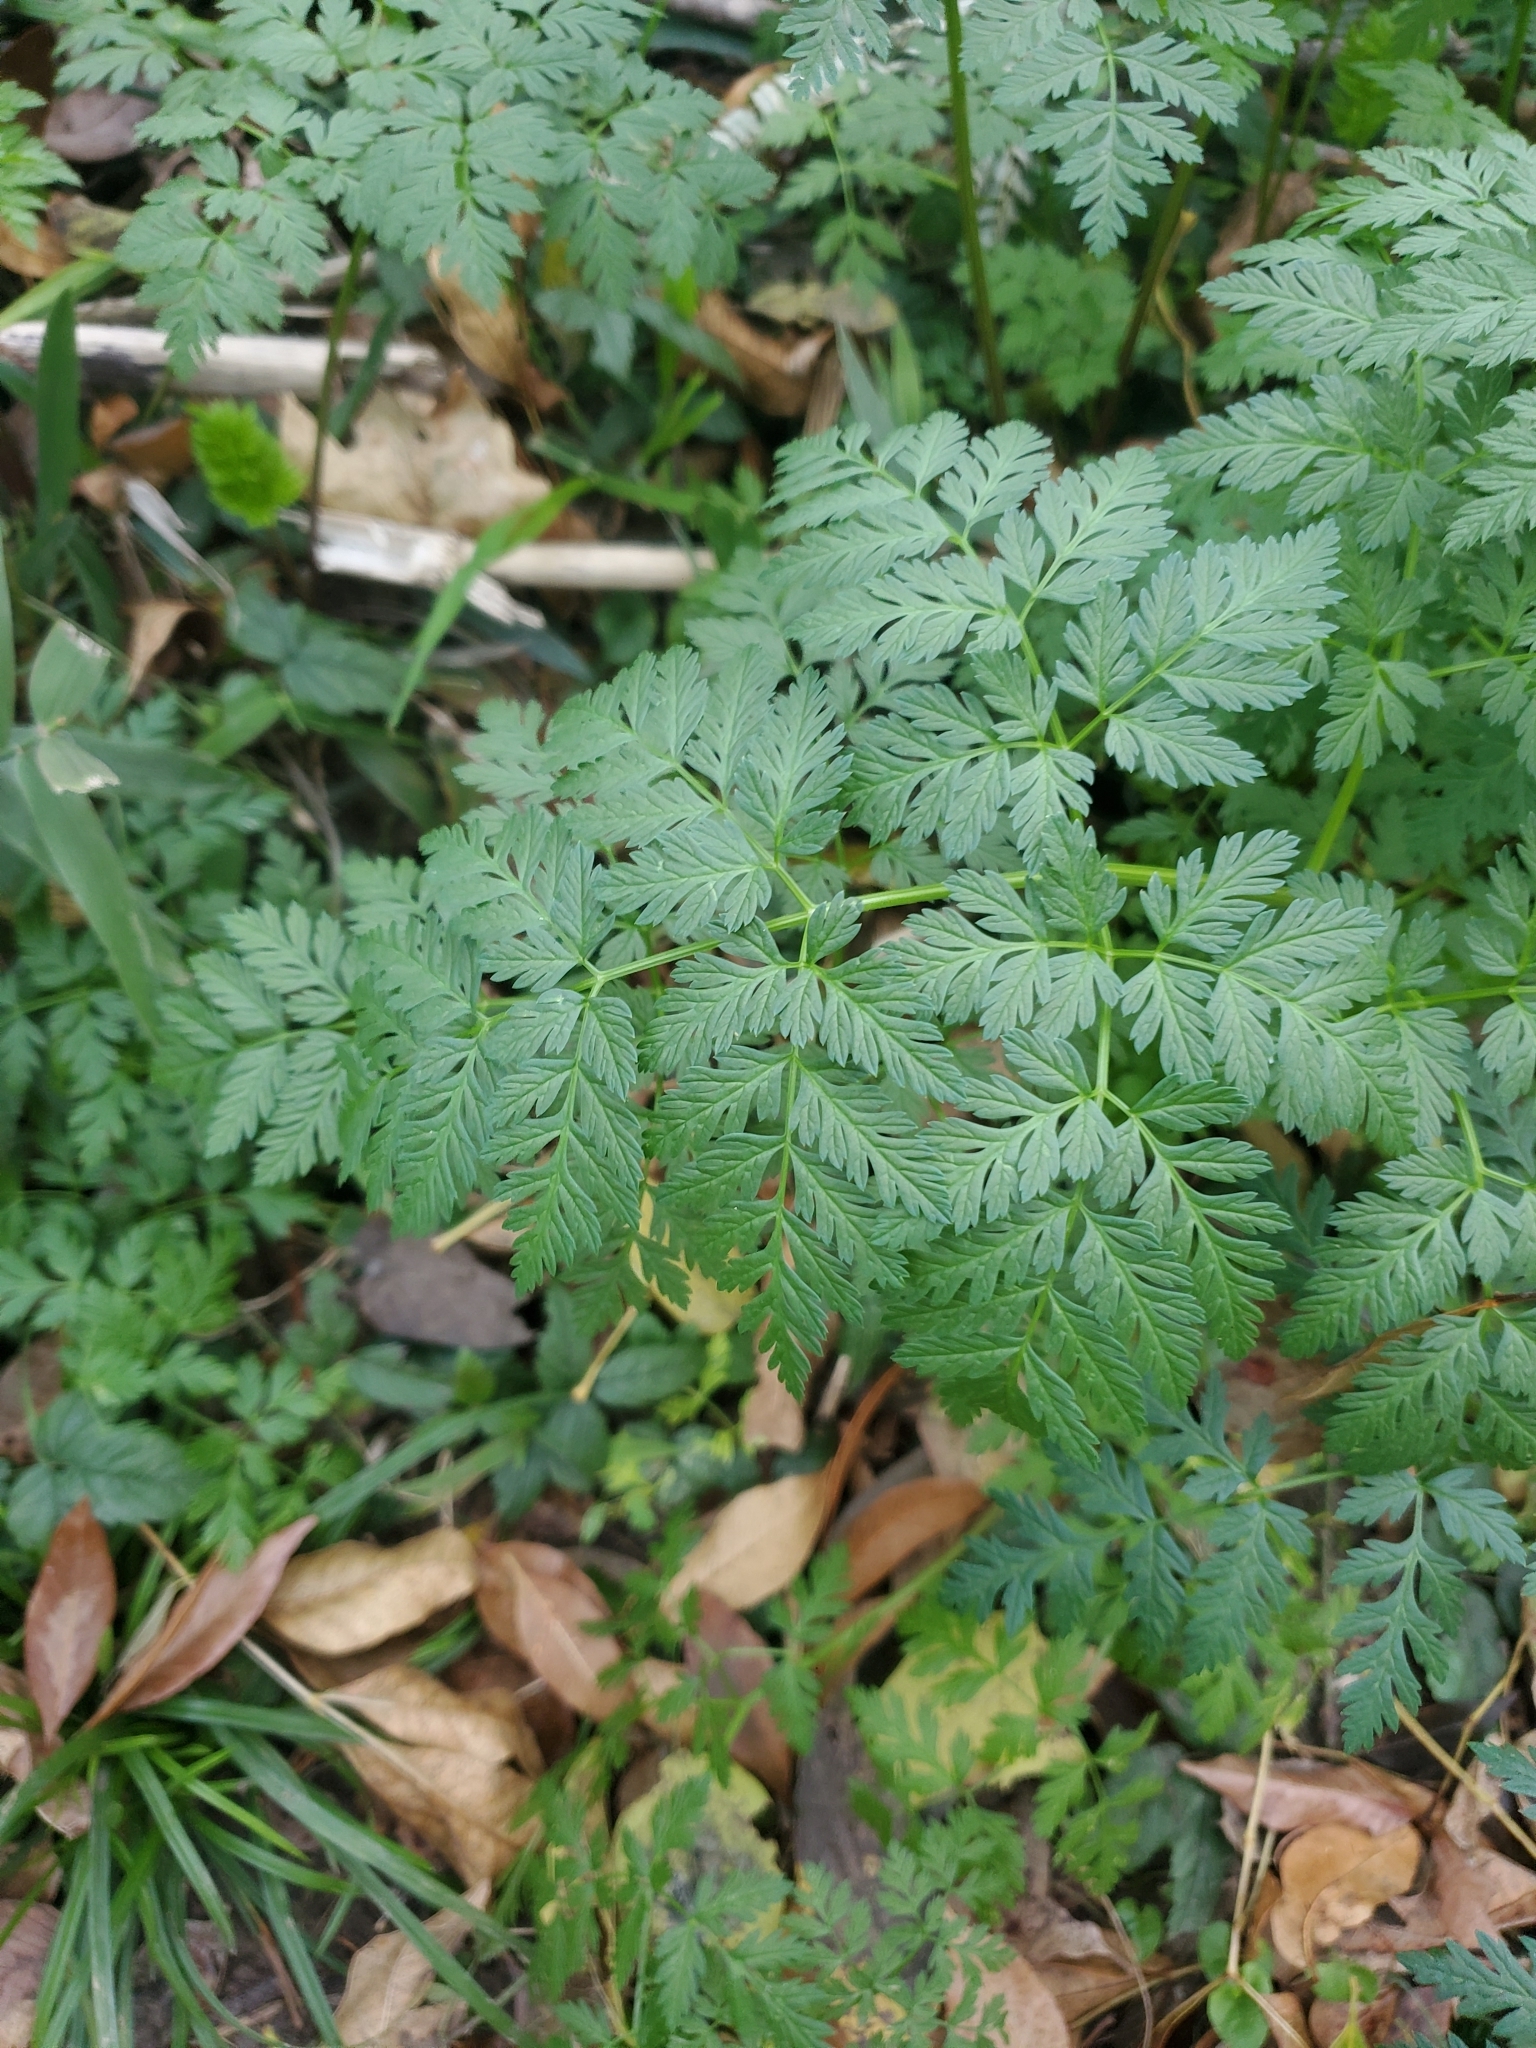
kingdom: Plantae
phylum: Tracheophyta
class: Magnoliopsida
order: Apiales
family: Apiaceae
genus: Conium
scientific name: Conium maculatum
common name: Hemlock
